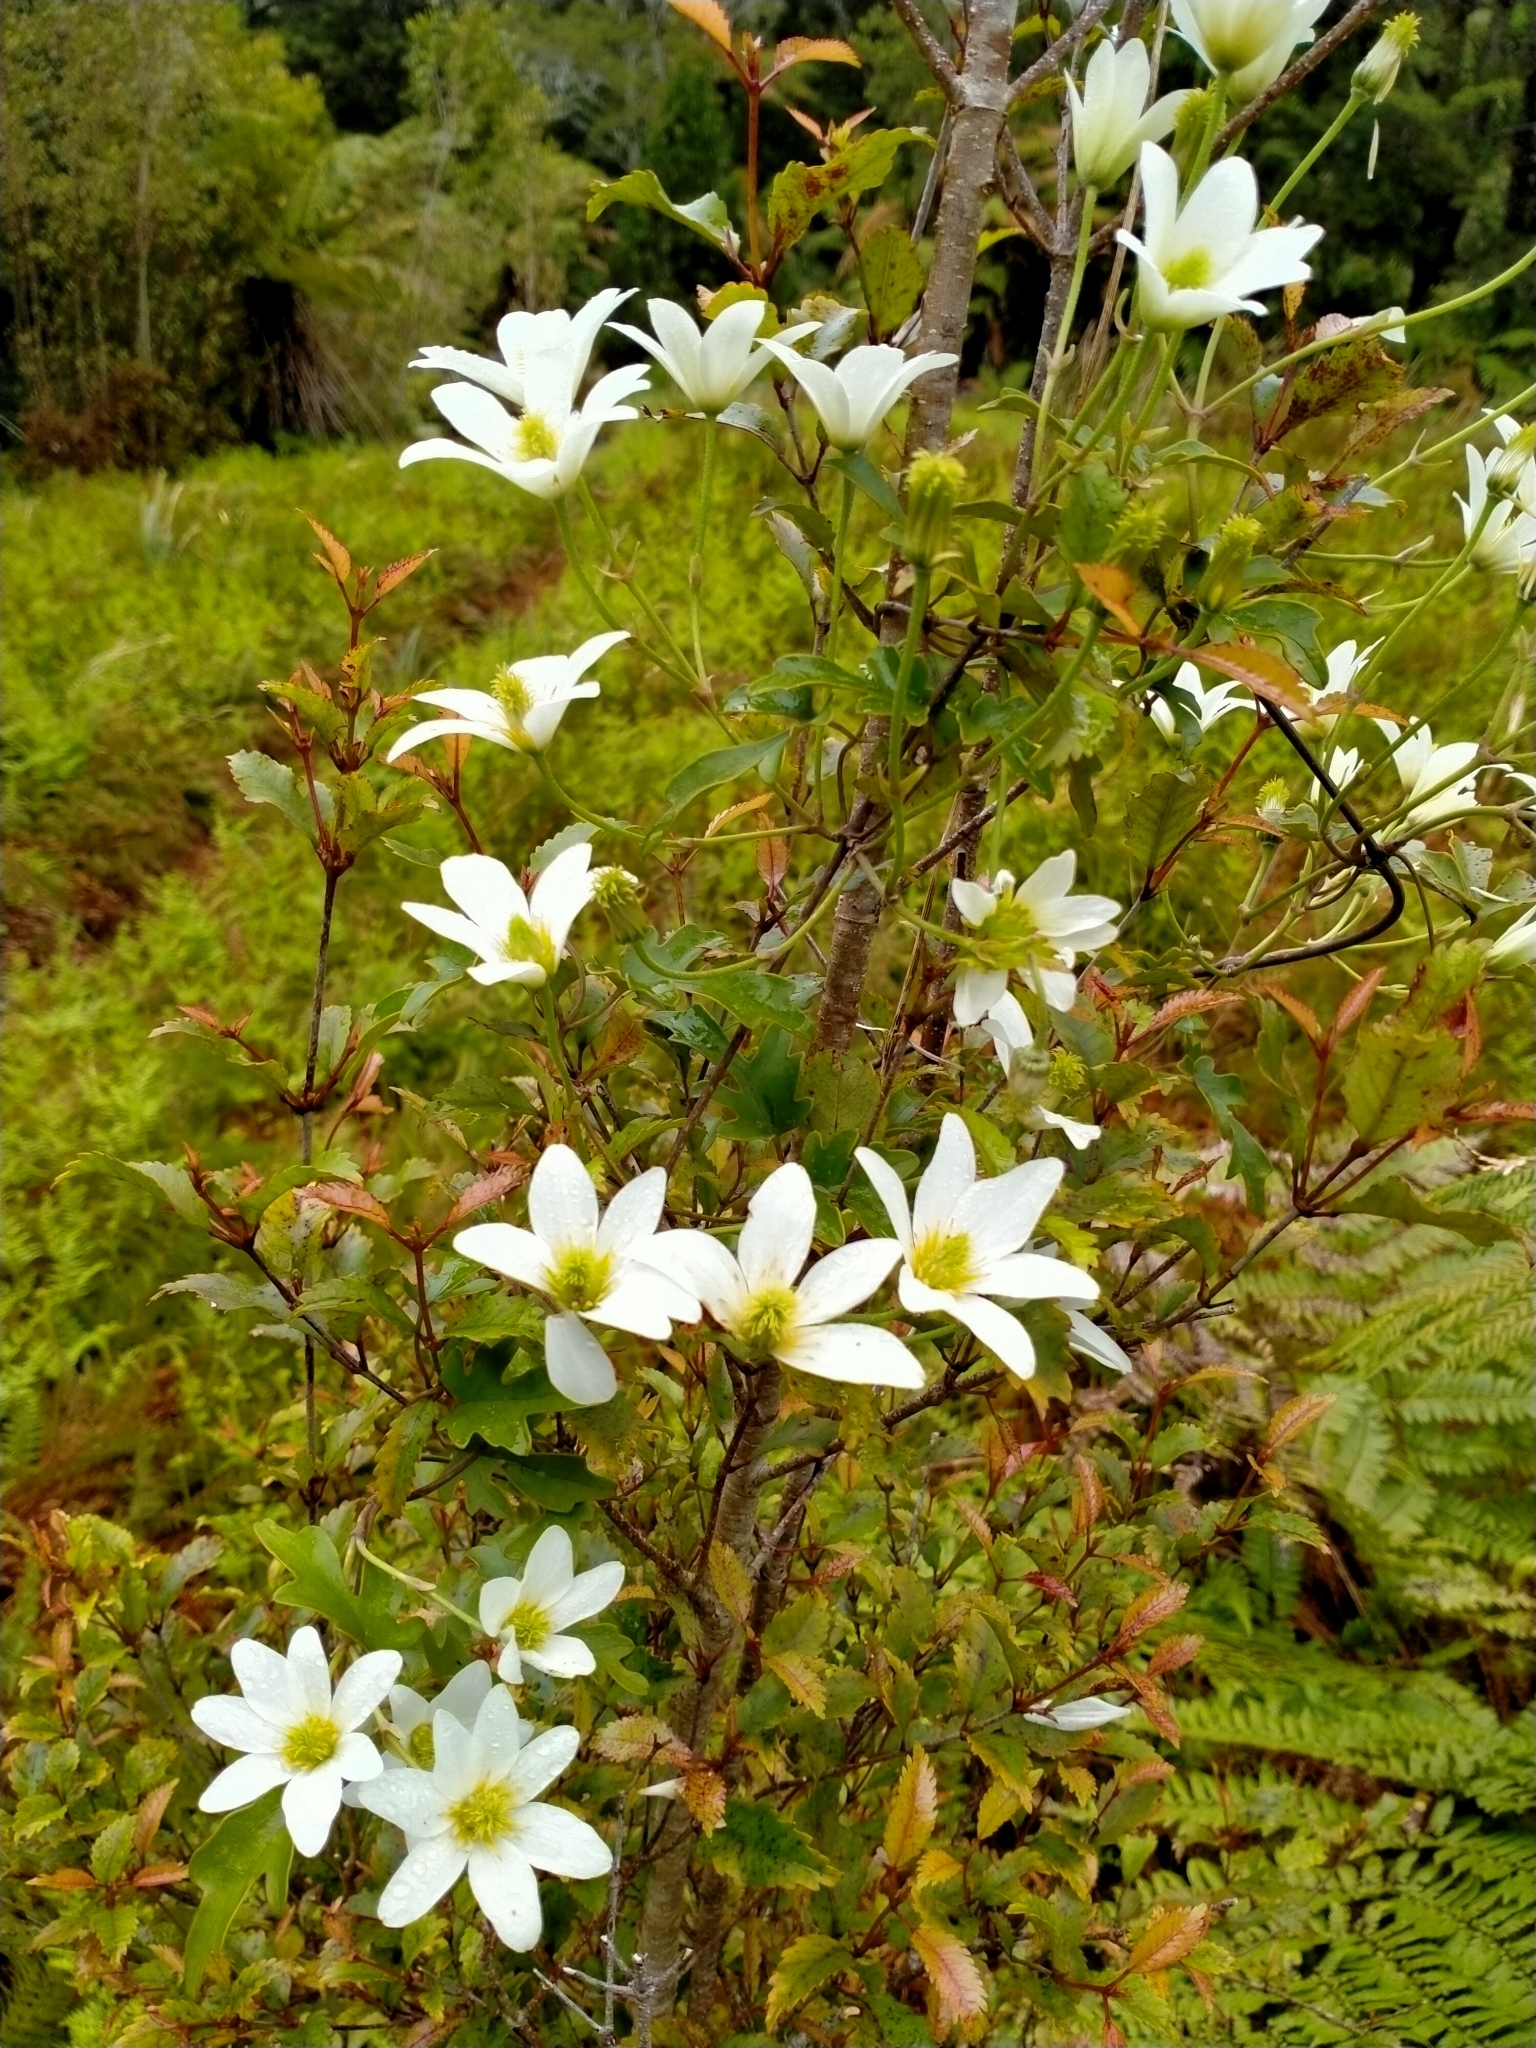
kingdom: Plantae
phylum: Tracheophyta
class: Magnoliopsida
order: Ranunculales
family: Ranunculaceae
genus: Clematis
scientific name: Clematis paniculata
